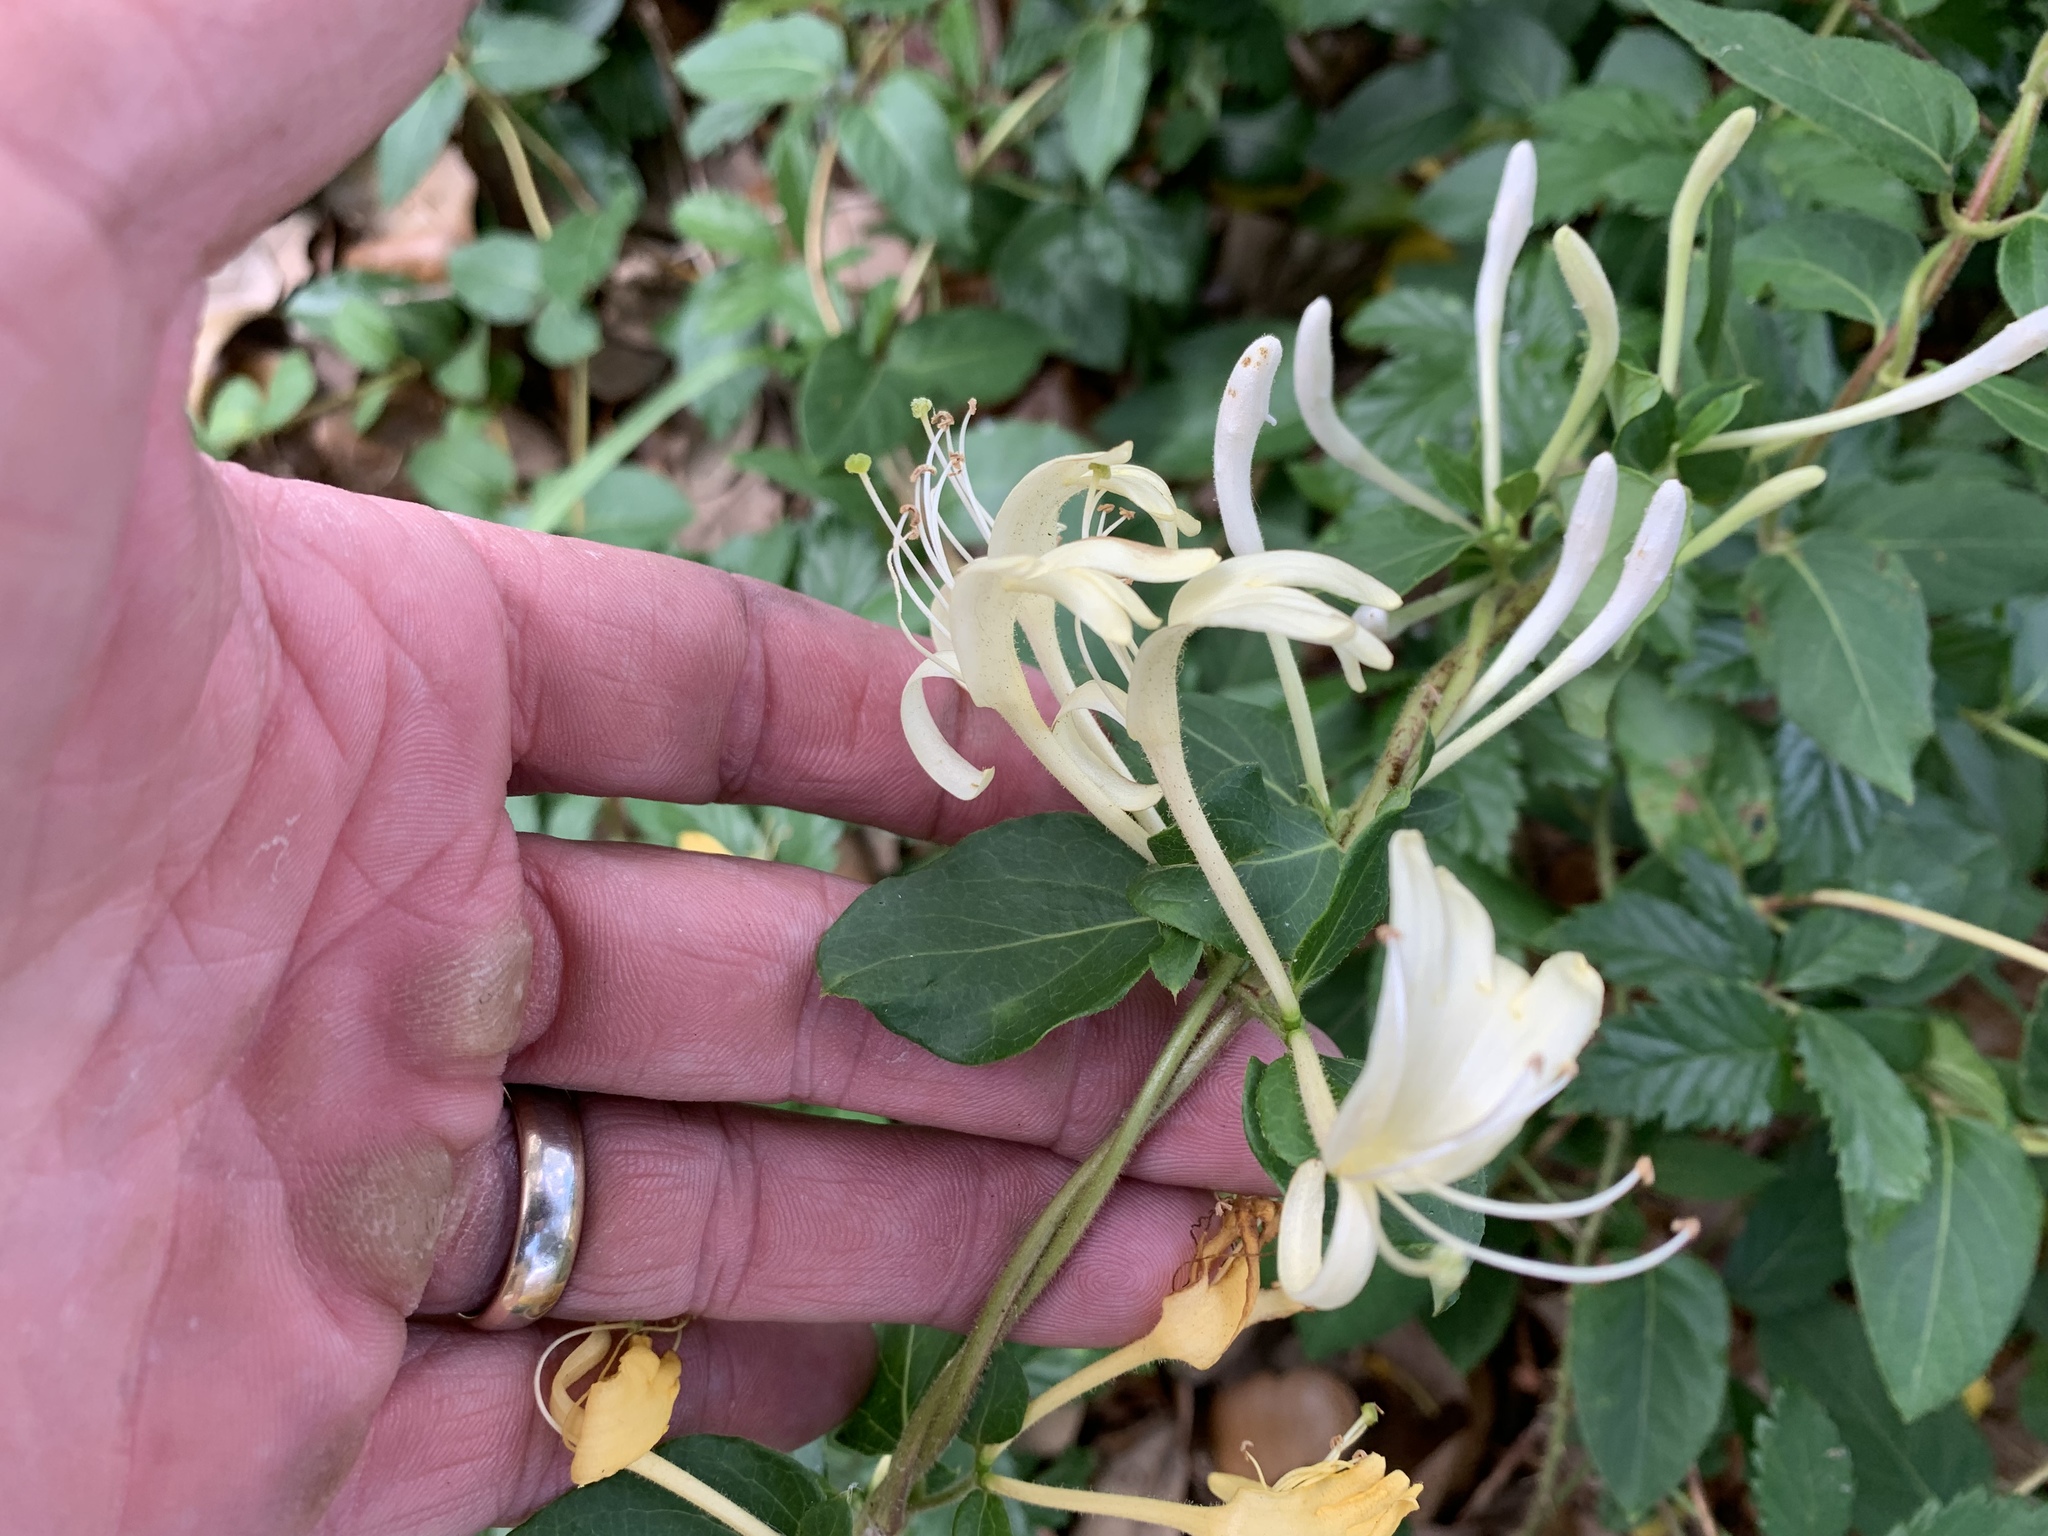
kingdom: Plantae
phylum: Tracheophyta
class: Magnoliopsida
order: Dipsacales
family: Caprifoliaceae
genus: Lonicera
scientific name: Lonicera japonica
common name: Japanese honeysuckle
